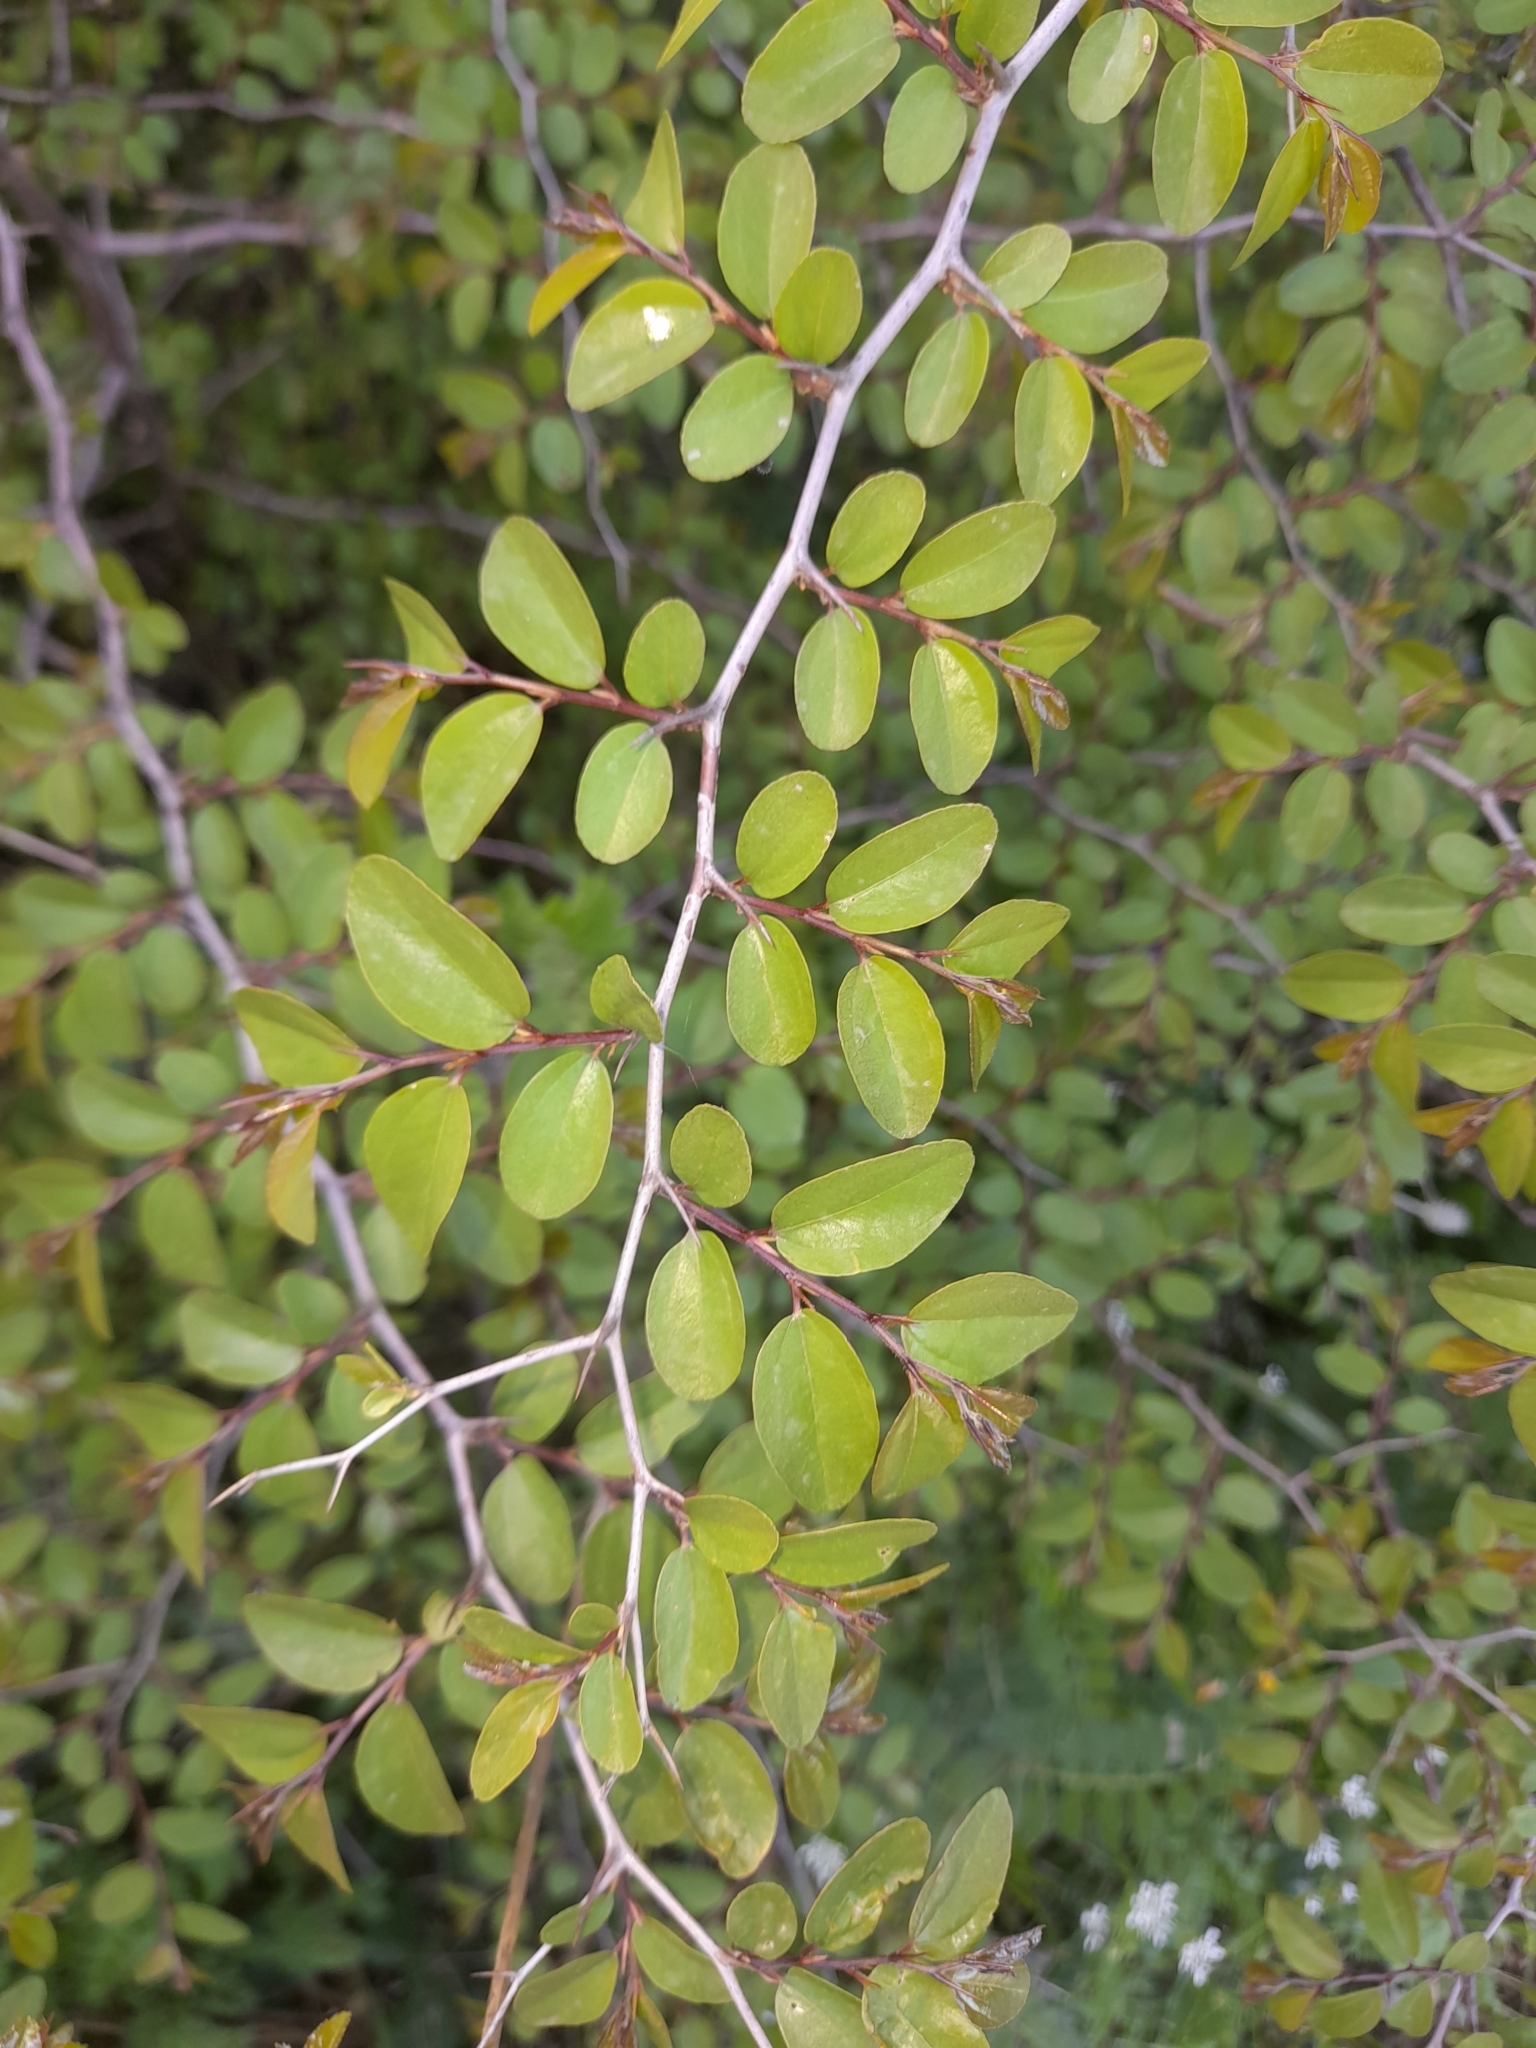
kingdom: Plantae
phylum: Tracheophyta
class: Magnoliopsida
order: Rosales
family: Rhamnaceae
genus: Paliurus
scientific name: Paliurus spina-christi
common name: Jeruselem thorn
